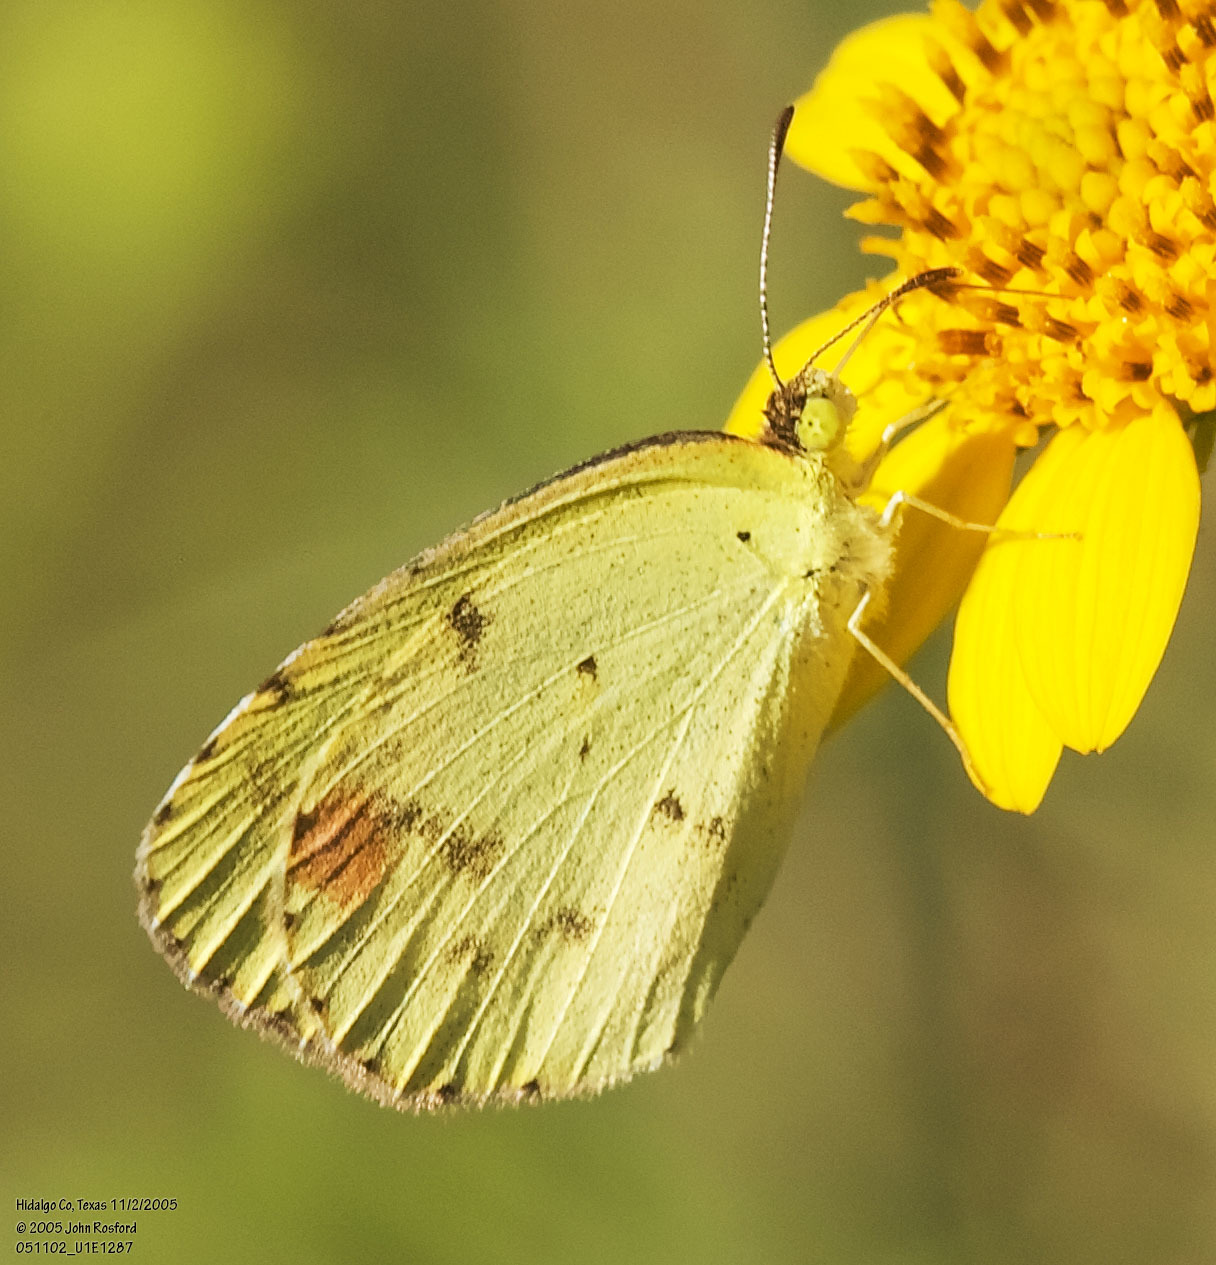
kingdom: Animalia
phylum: Arthropoda
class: Insecta
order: Lepidoptera
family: Pieridae
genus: Pyrisitia
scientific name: Pyrisitia lisa
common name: Little yellow
